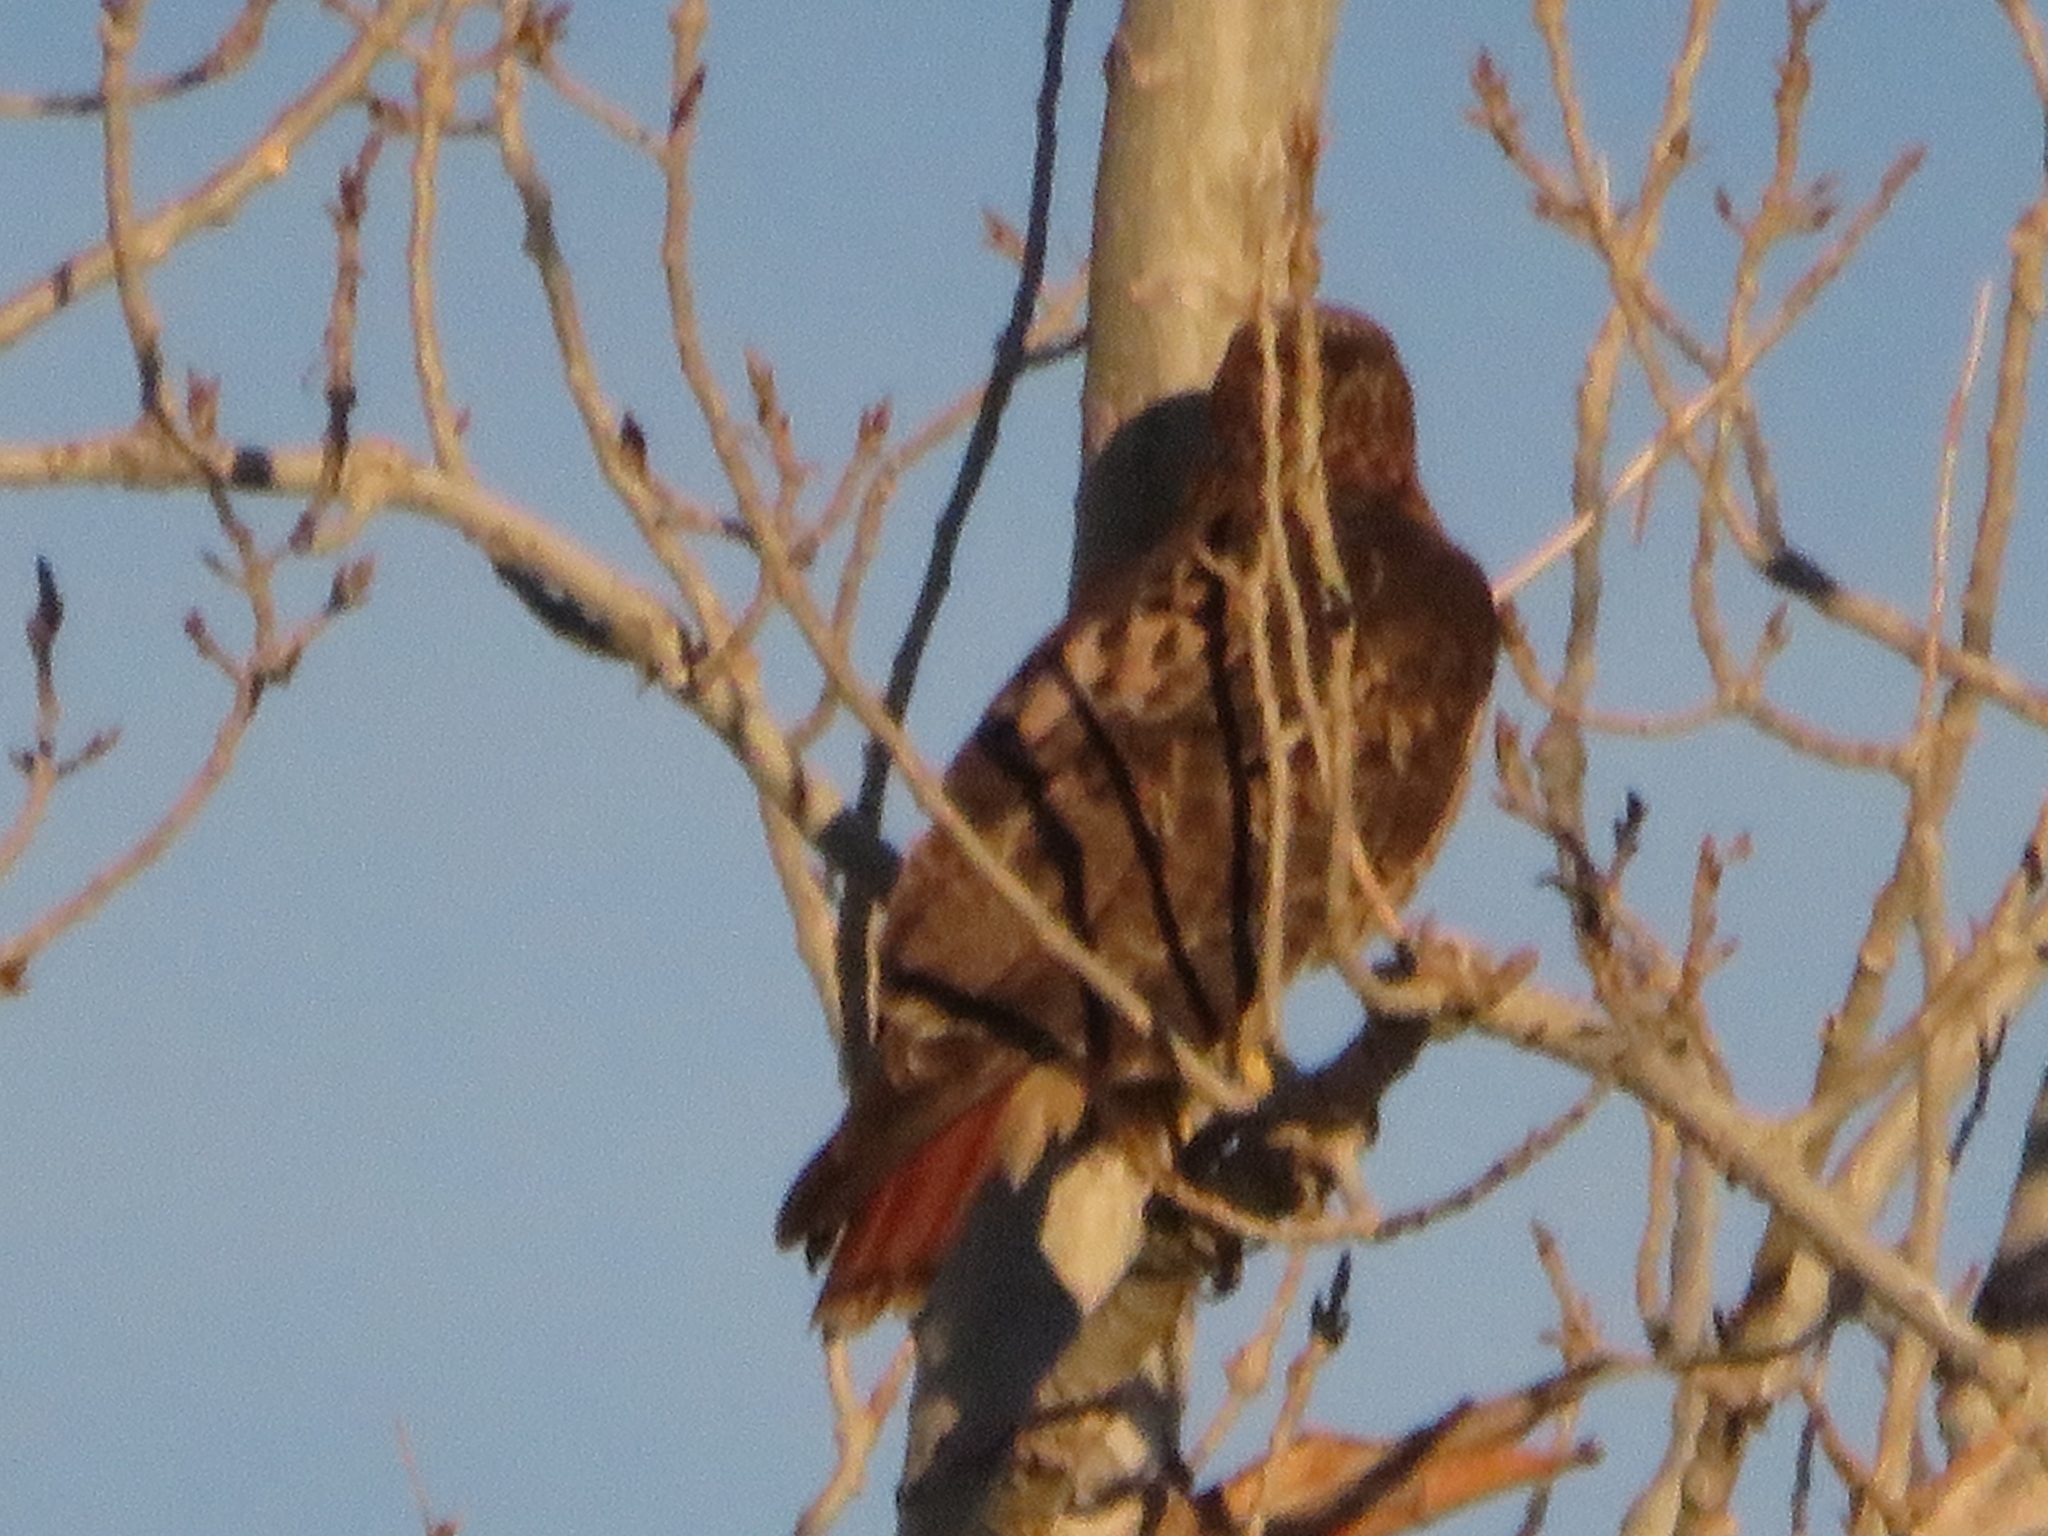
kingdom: Animalia
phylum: Chordata
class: Aves
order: Accipitriformes
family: Accipitridae
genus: Buteo
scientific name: Buteo jamaicensis
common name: Red-tailed hawk
